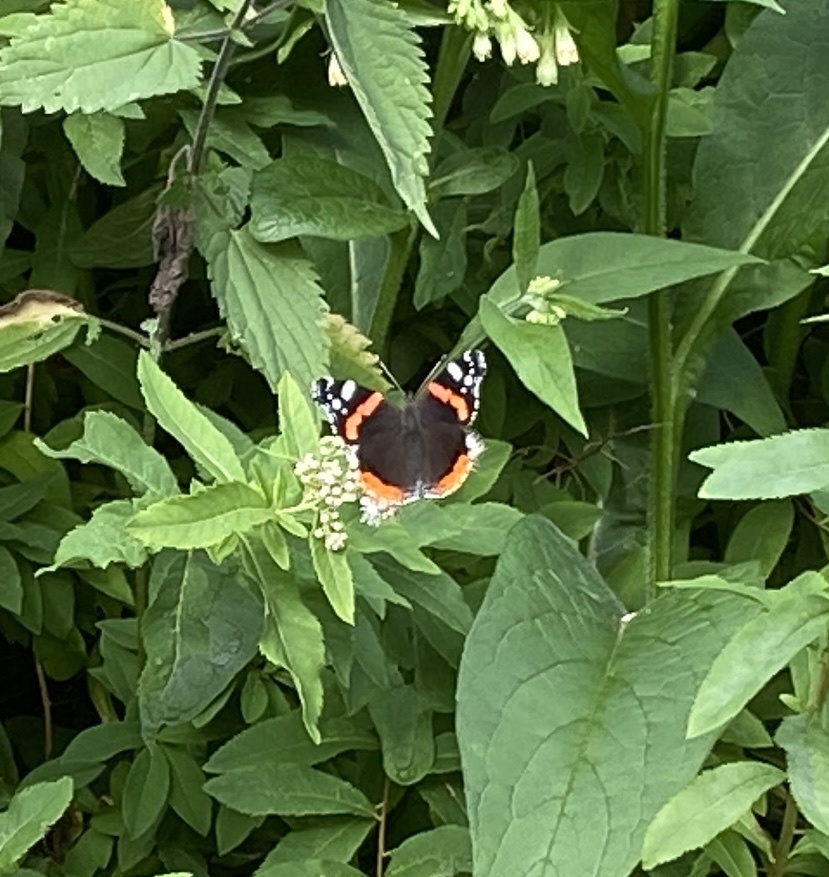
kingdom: Animalia
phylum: Arthropoda
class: Insecta
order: Lepidoptera
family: Nymphalidae
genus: Vanessa
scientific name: Vanessa atalanta
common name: Red admiral
